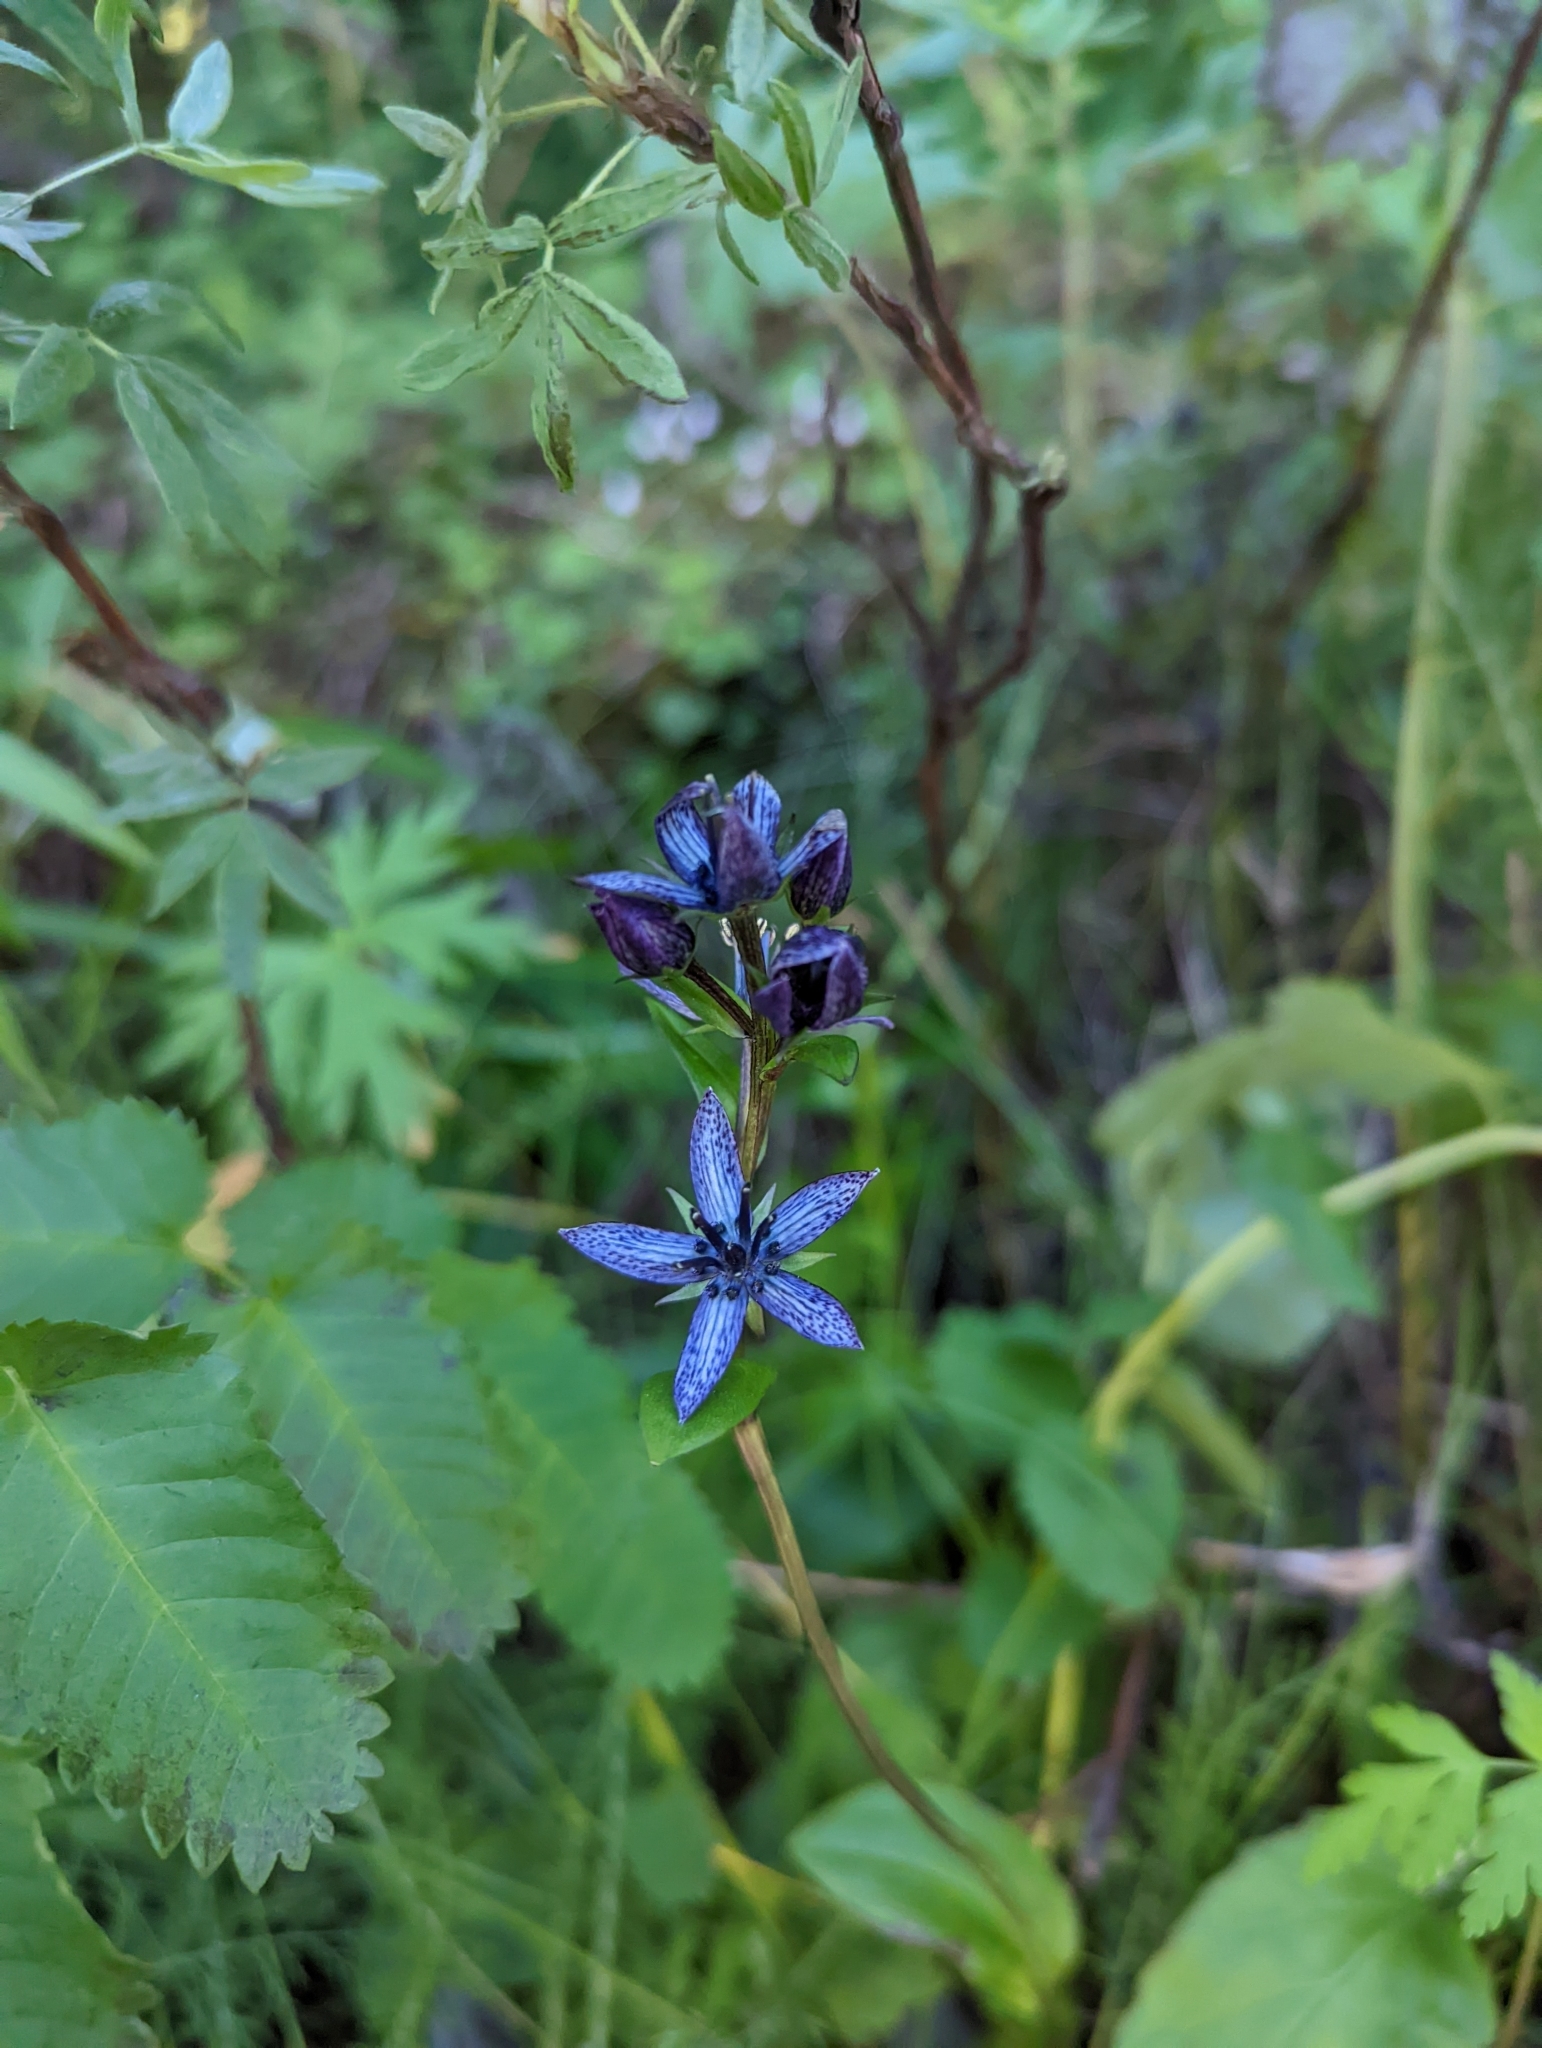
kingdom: Plantae
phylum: Tracheophyta
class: Magnoliopsida
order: Gentianales
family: Gentianaceae
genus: Swertia
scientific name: Swertia perennis
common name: Alpine bog swertia
